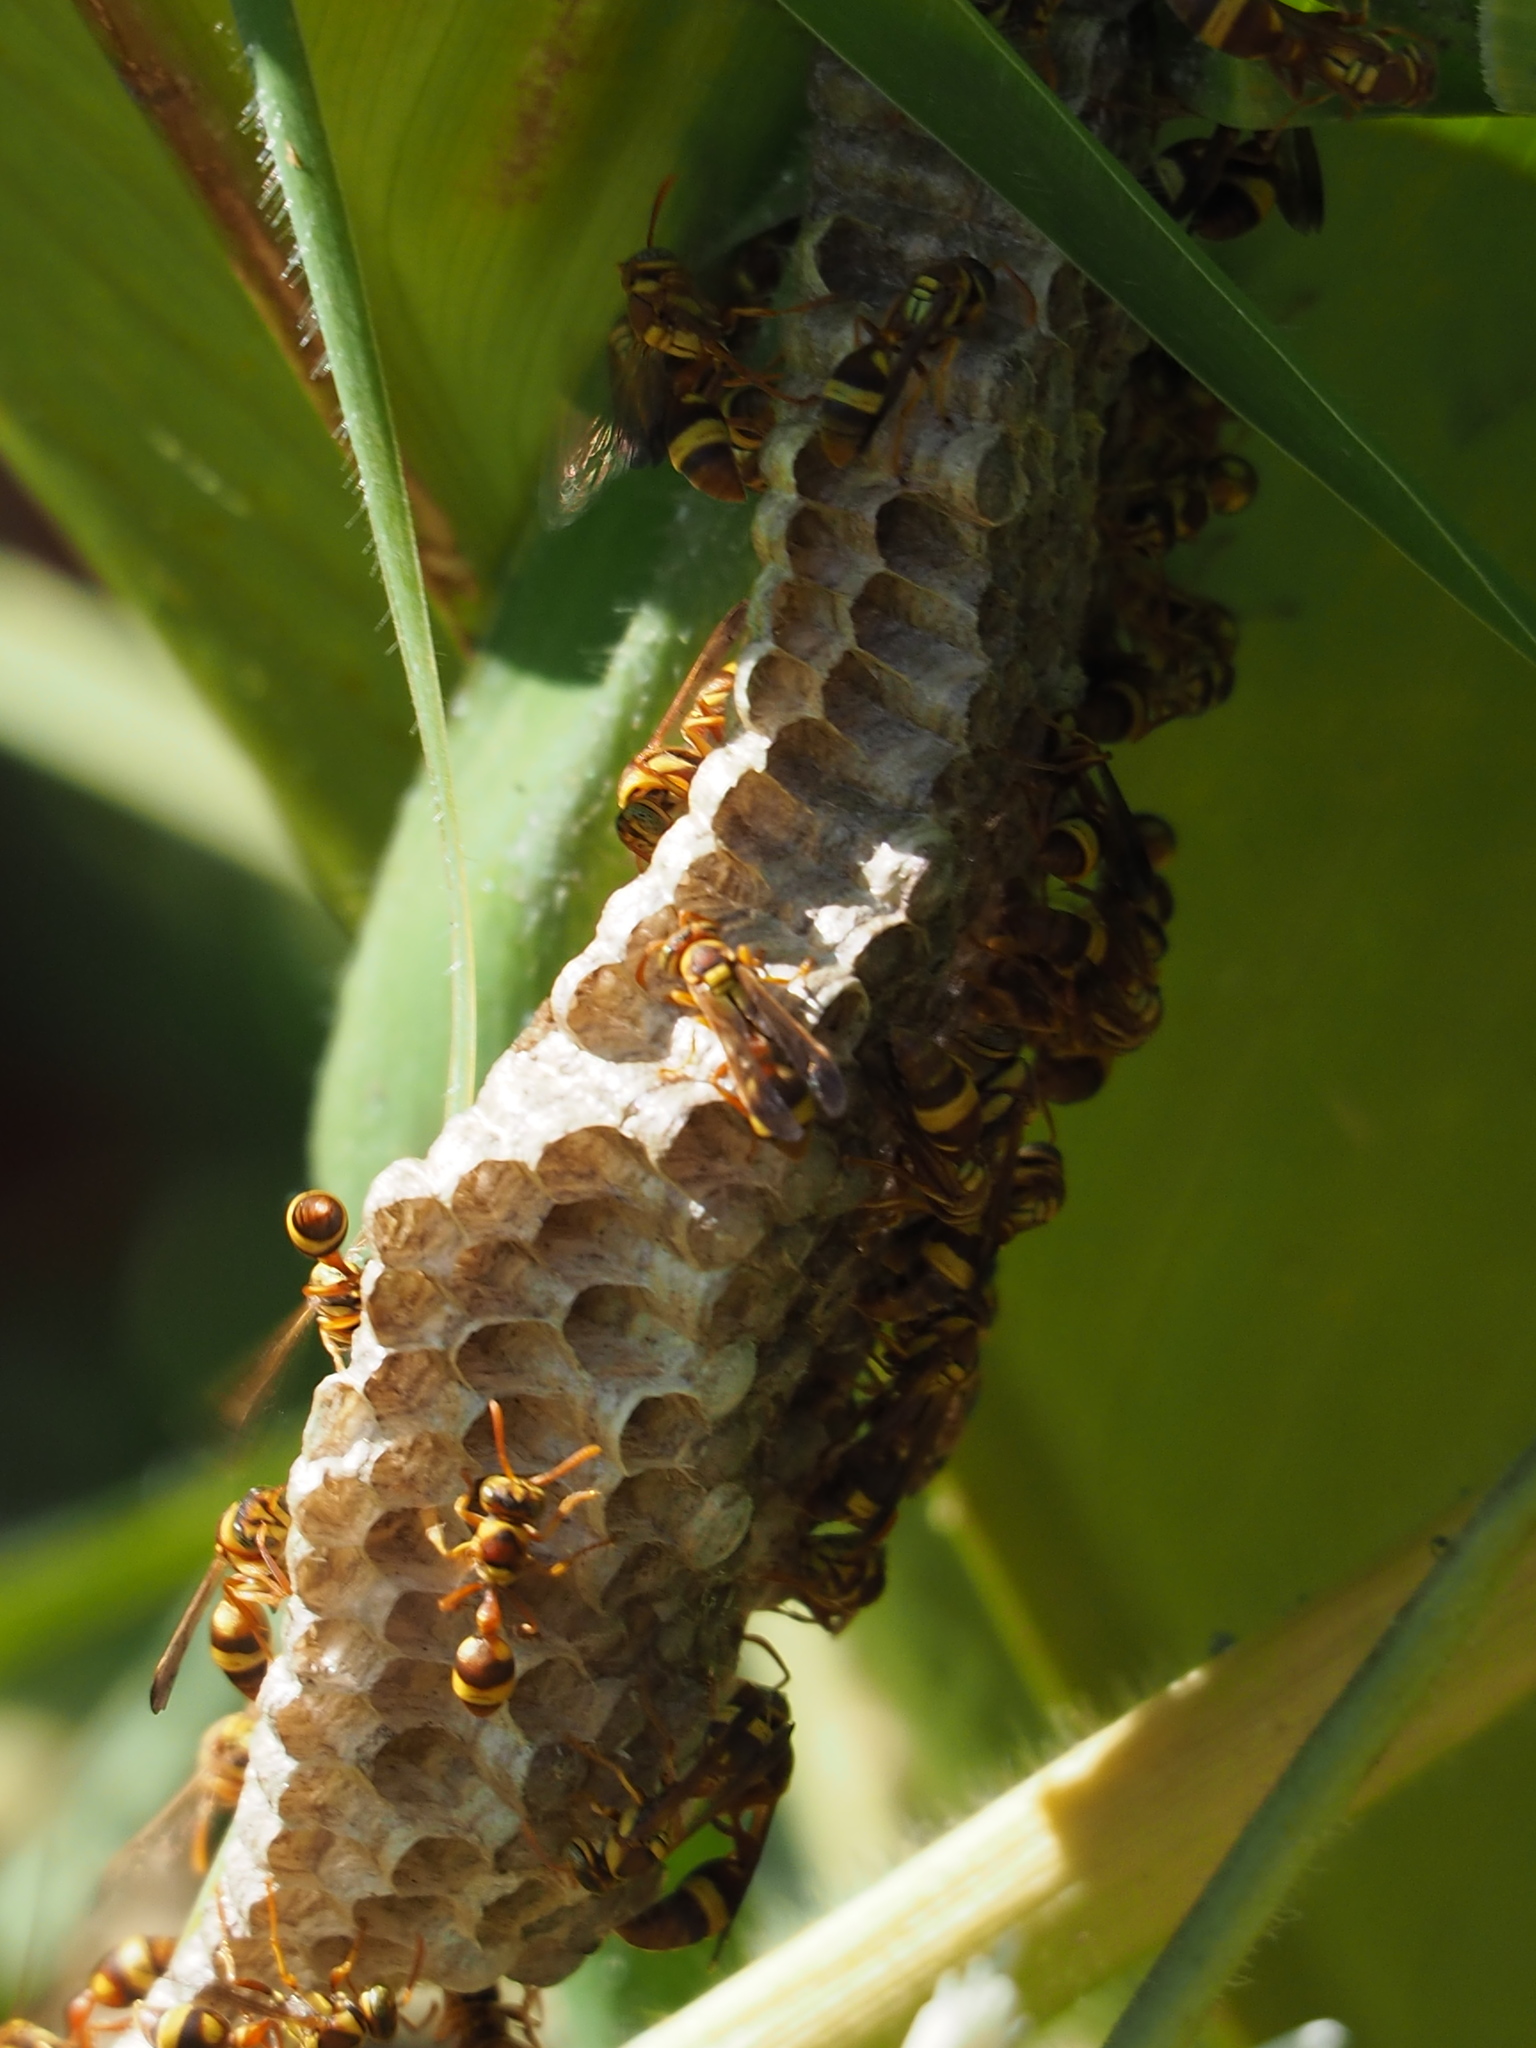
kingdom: Animalia
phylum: Arthropoda
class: Insecta
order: Hymenoptera
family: Vespidae
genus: Parapolybia
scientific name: Parapolybia varia
